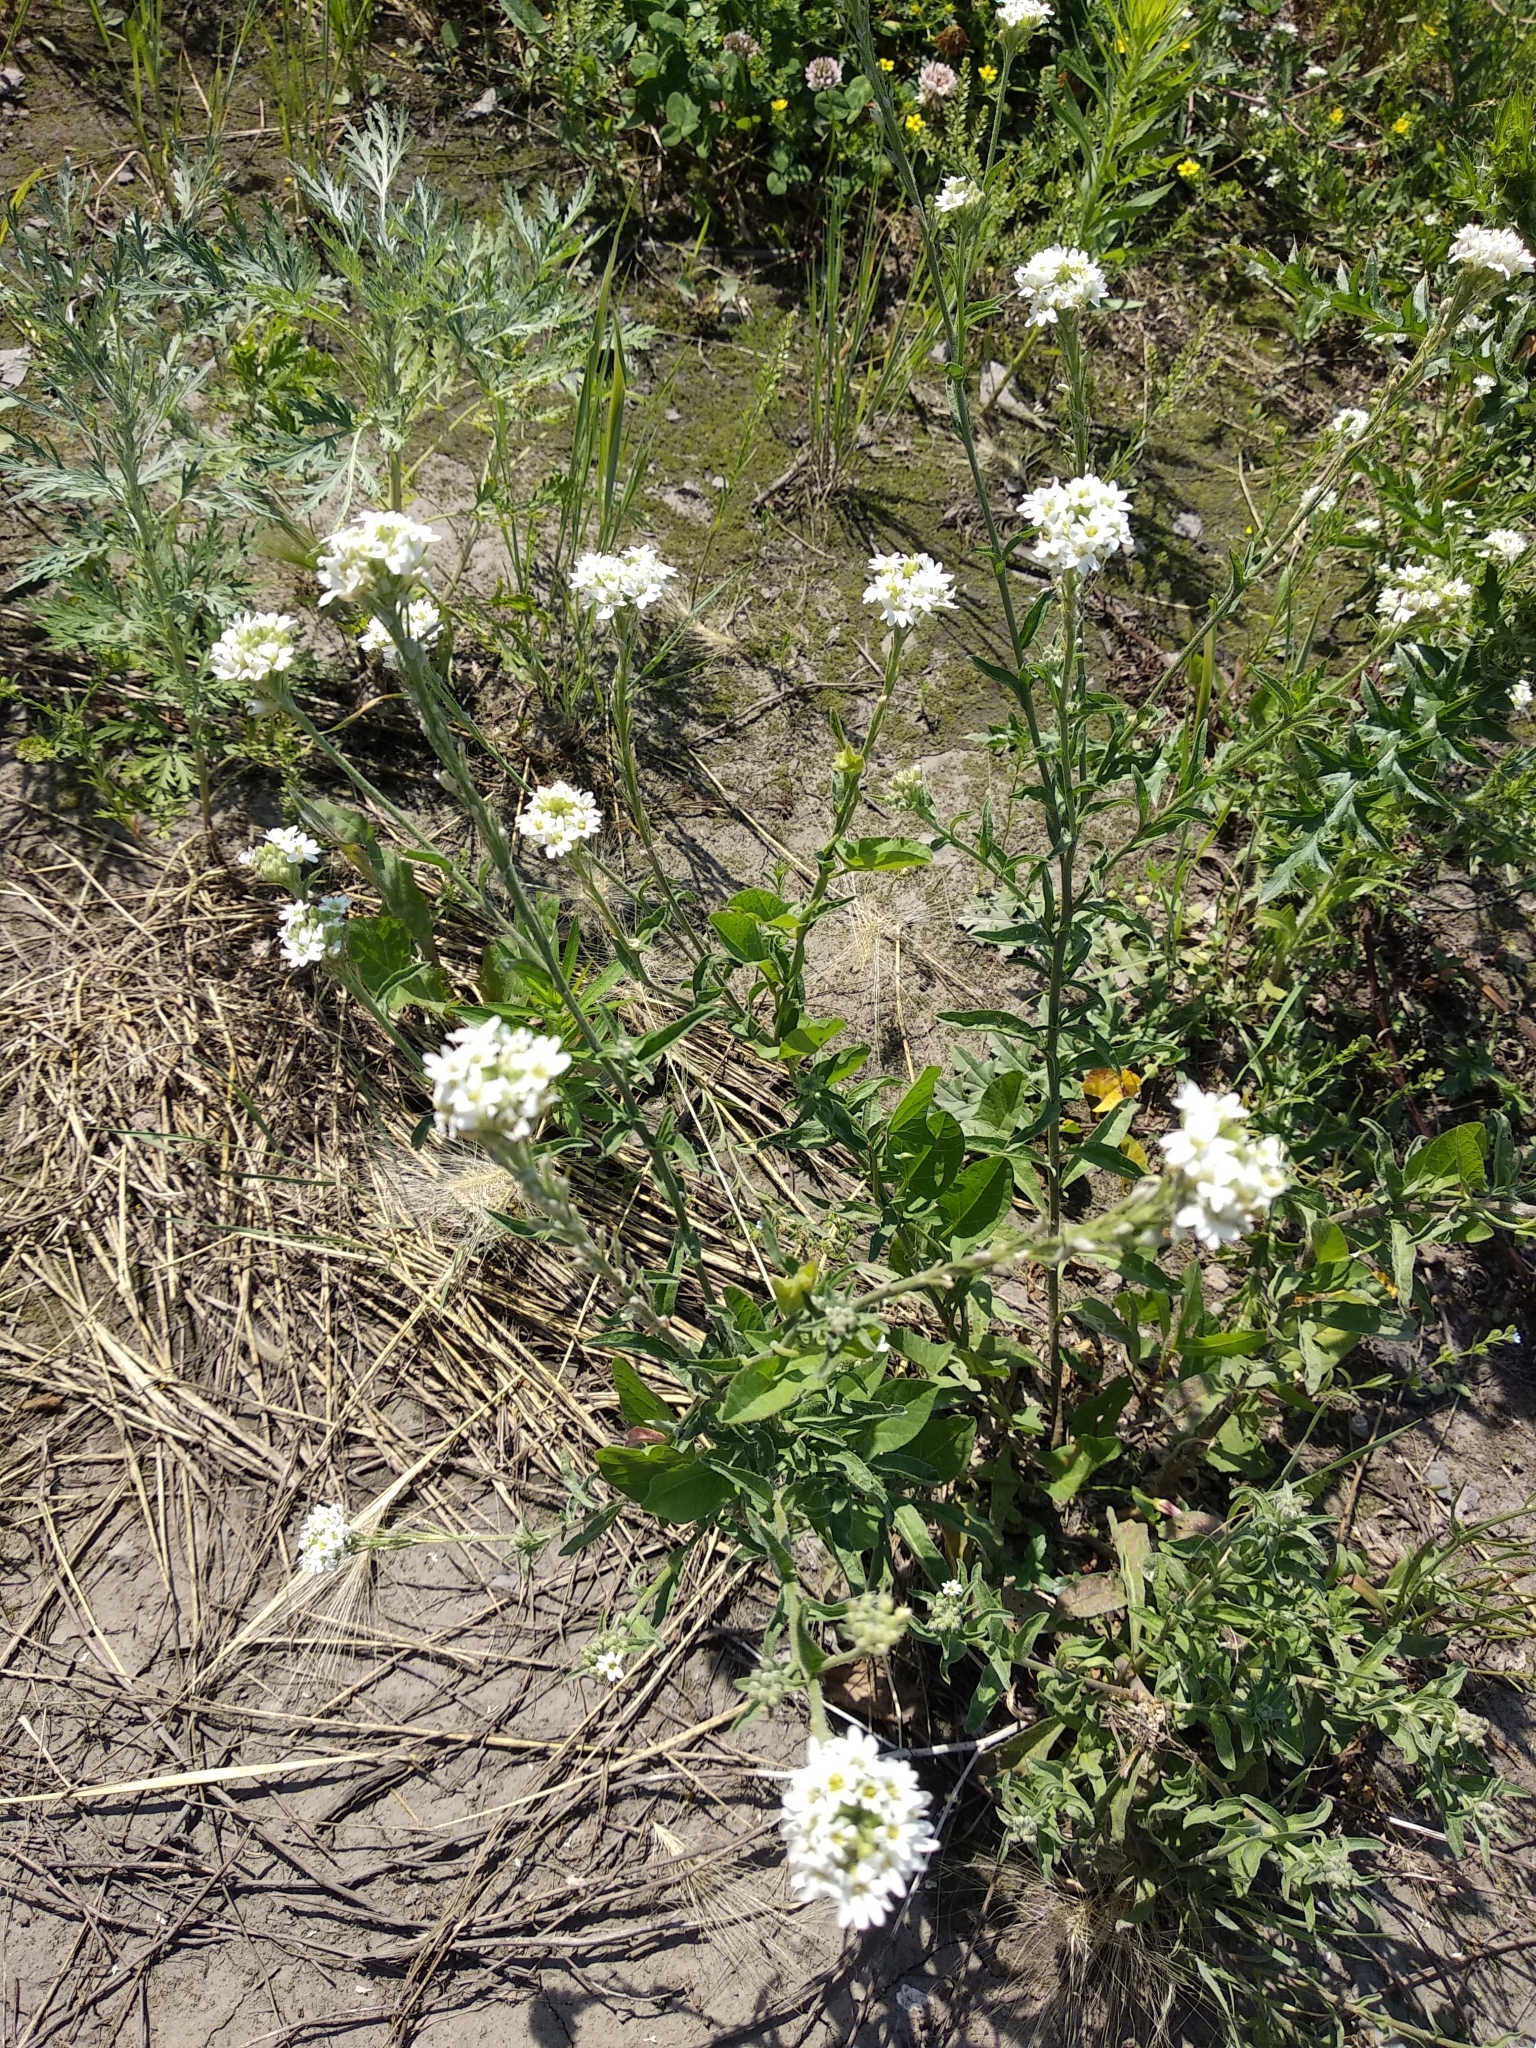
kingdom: Plantae
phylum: Tracheophyta
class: Magnoliopsida
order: Brassicales
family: Brassicaceae
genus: Berteroa
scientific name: Berteroa incana
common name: Hoary alison
